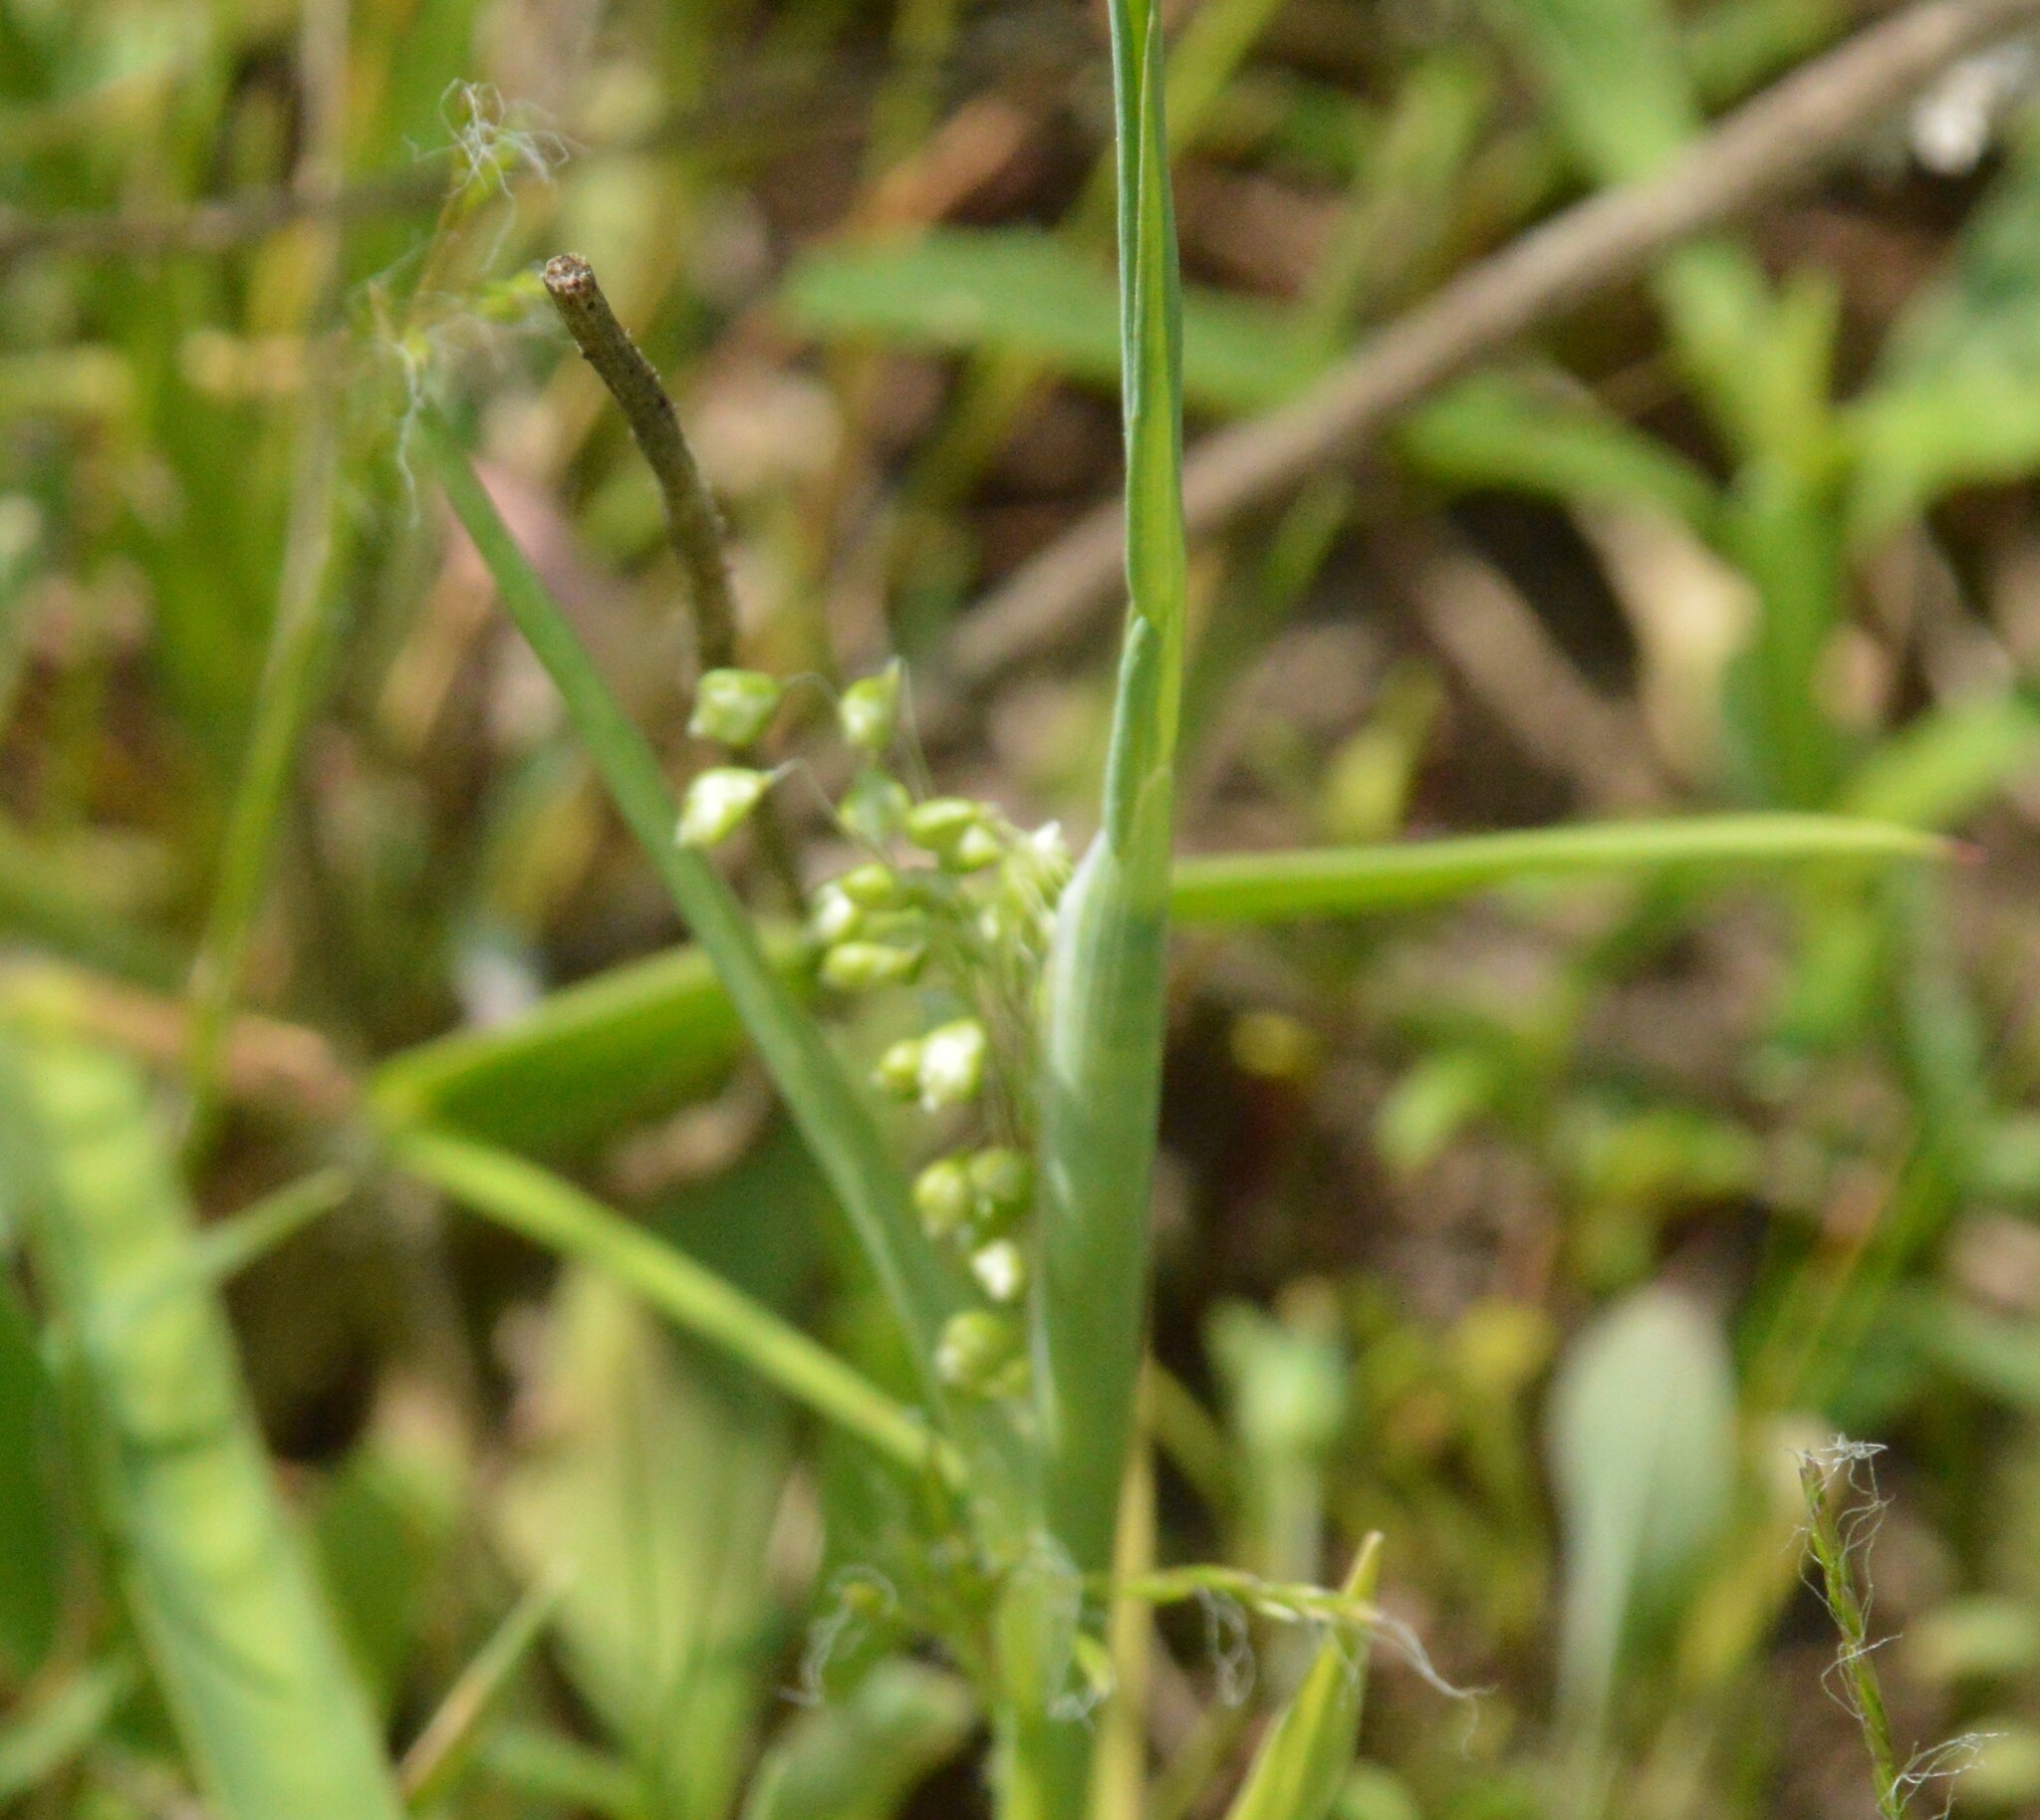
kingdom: Plantae
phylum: Tracheophyta
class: Liliopsida
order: Poales
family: Poaceae
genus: Briza
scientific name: Briza minor
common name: Lesser quaking-grass
